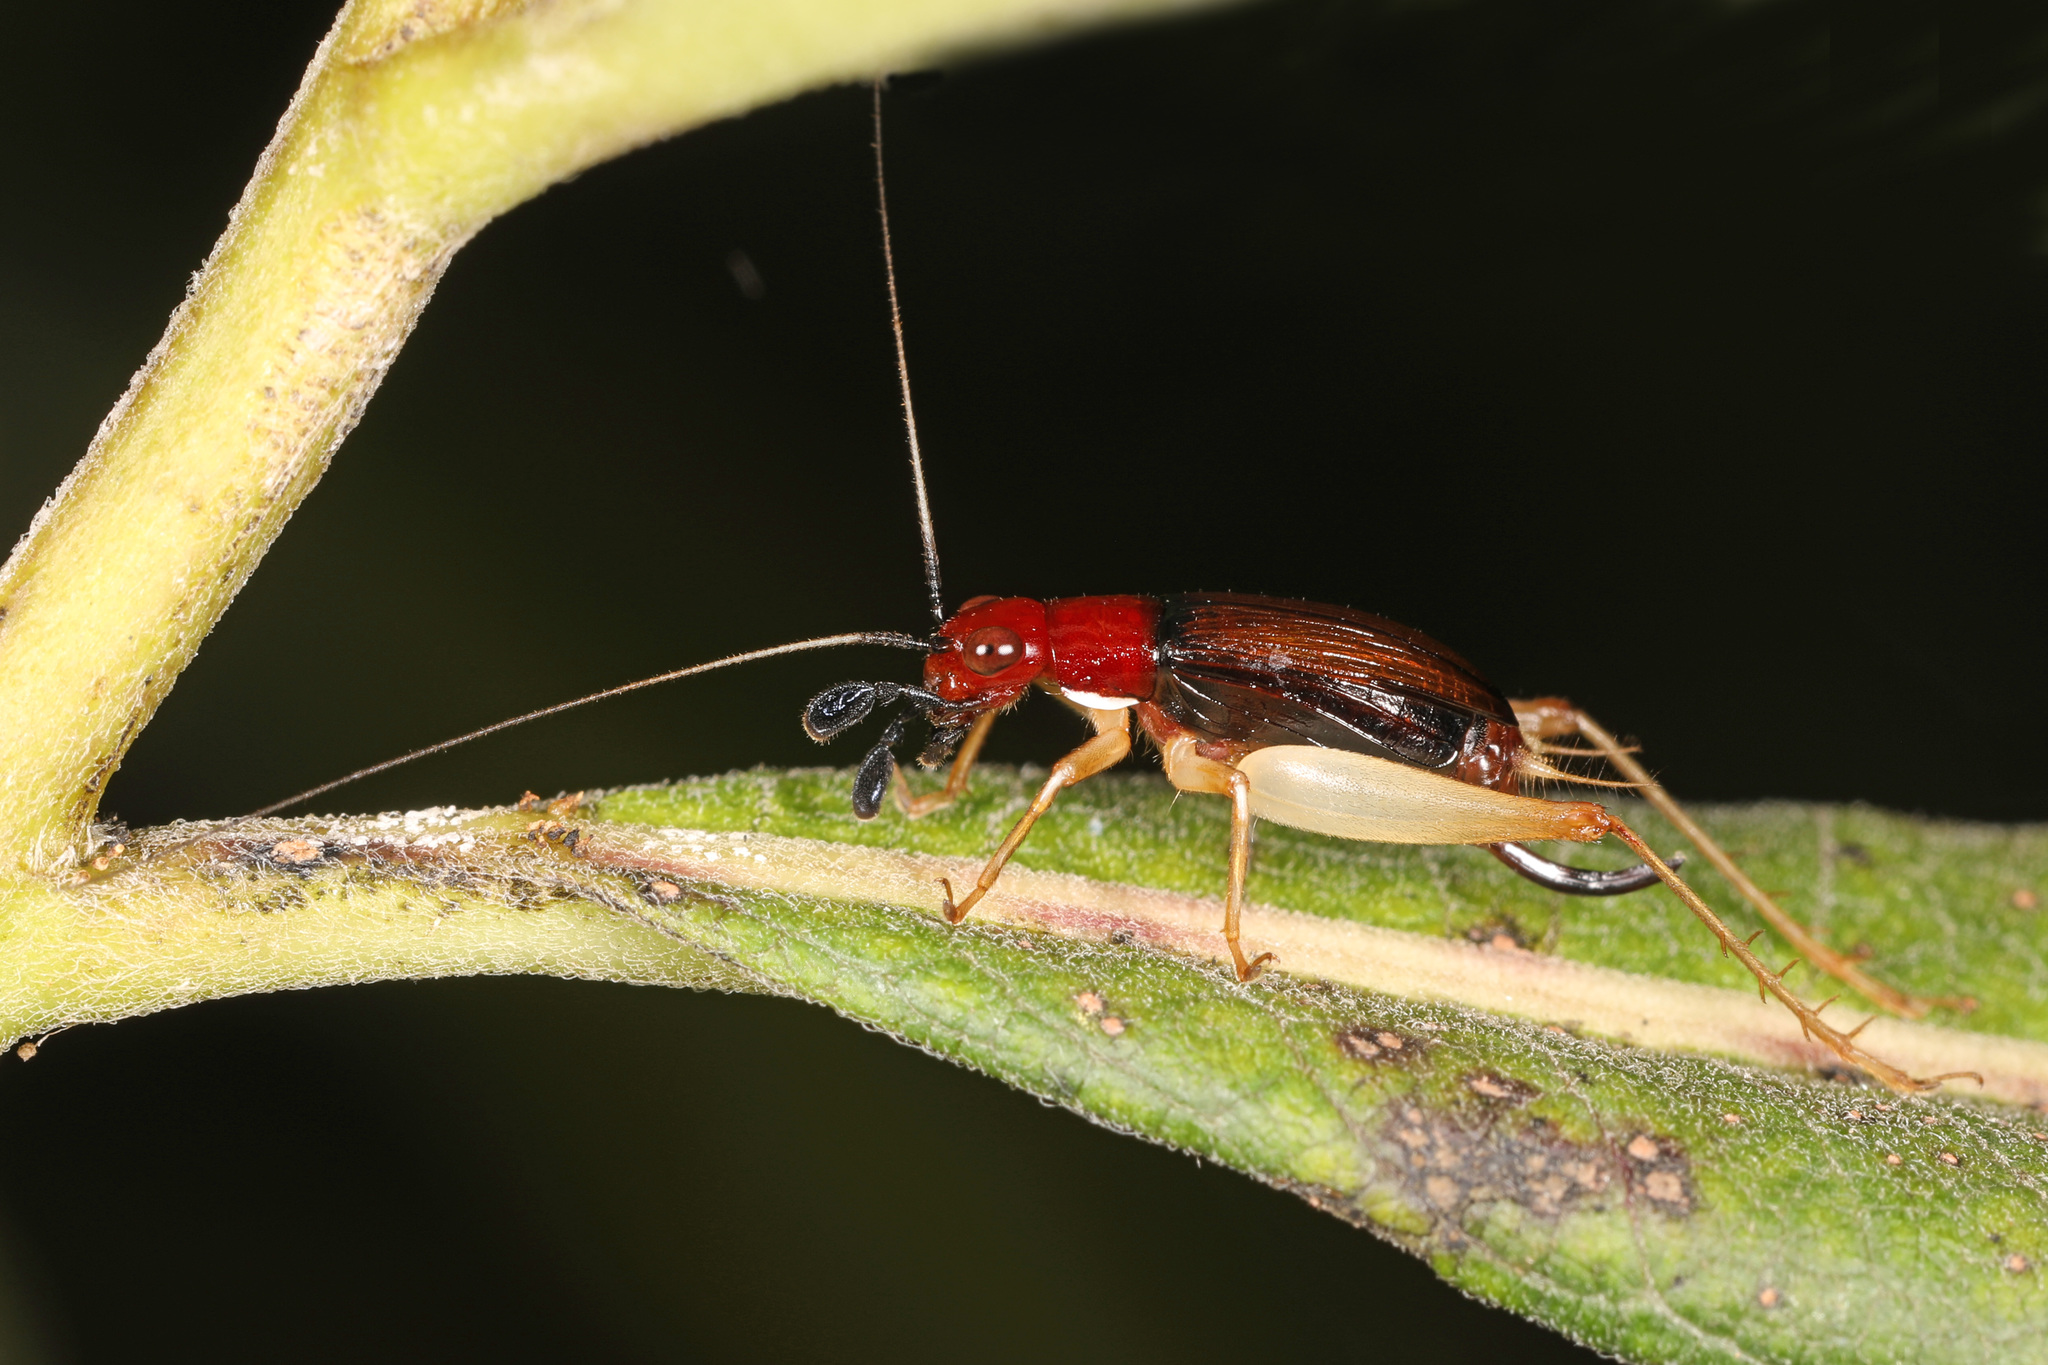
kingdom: Animalia
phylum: Arthropoda
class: Insecta
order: Orthoptera
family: Trigonidiidae
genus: Phyllopalpus
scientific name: Phyllopalpus pulchellus
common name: Handsome trig
